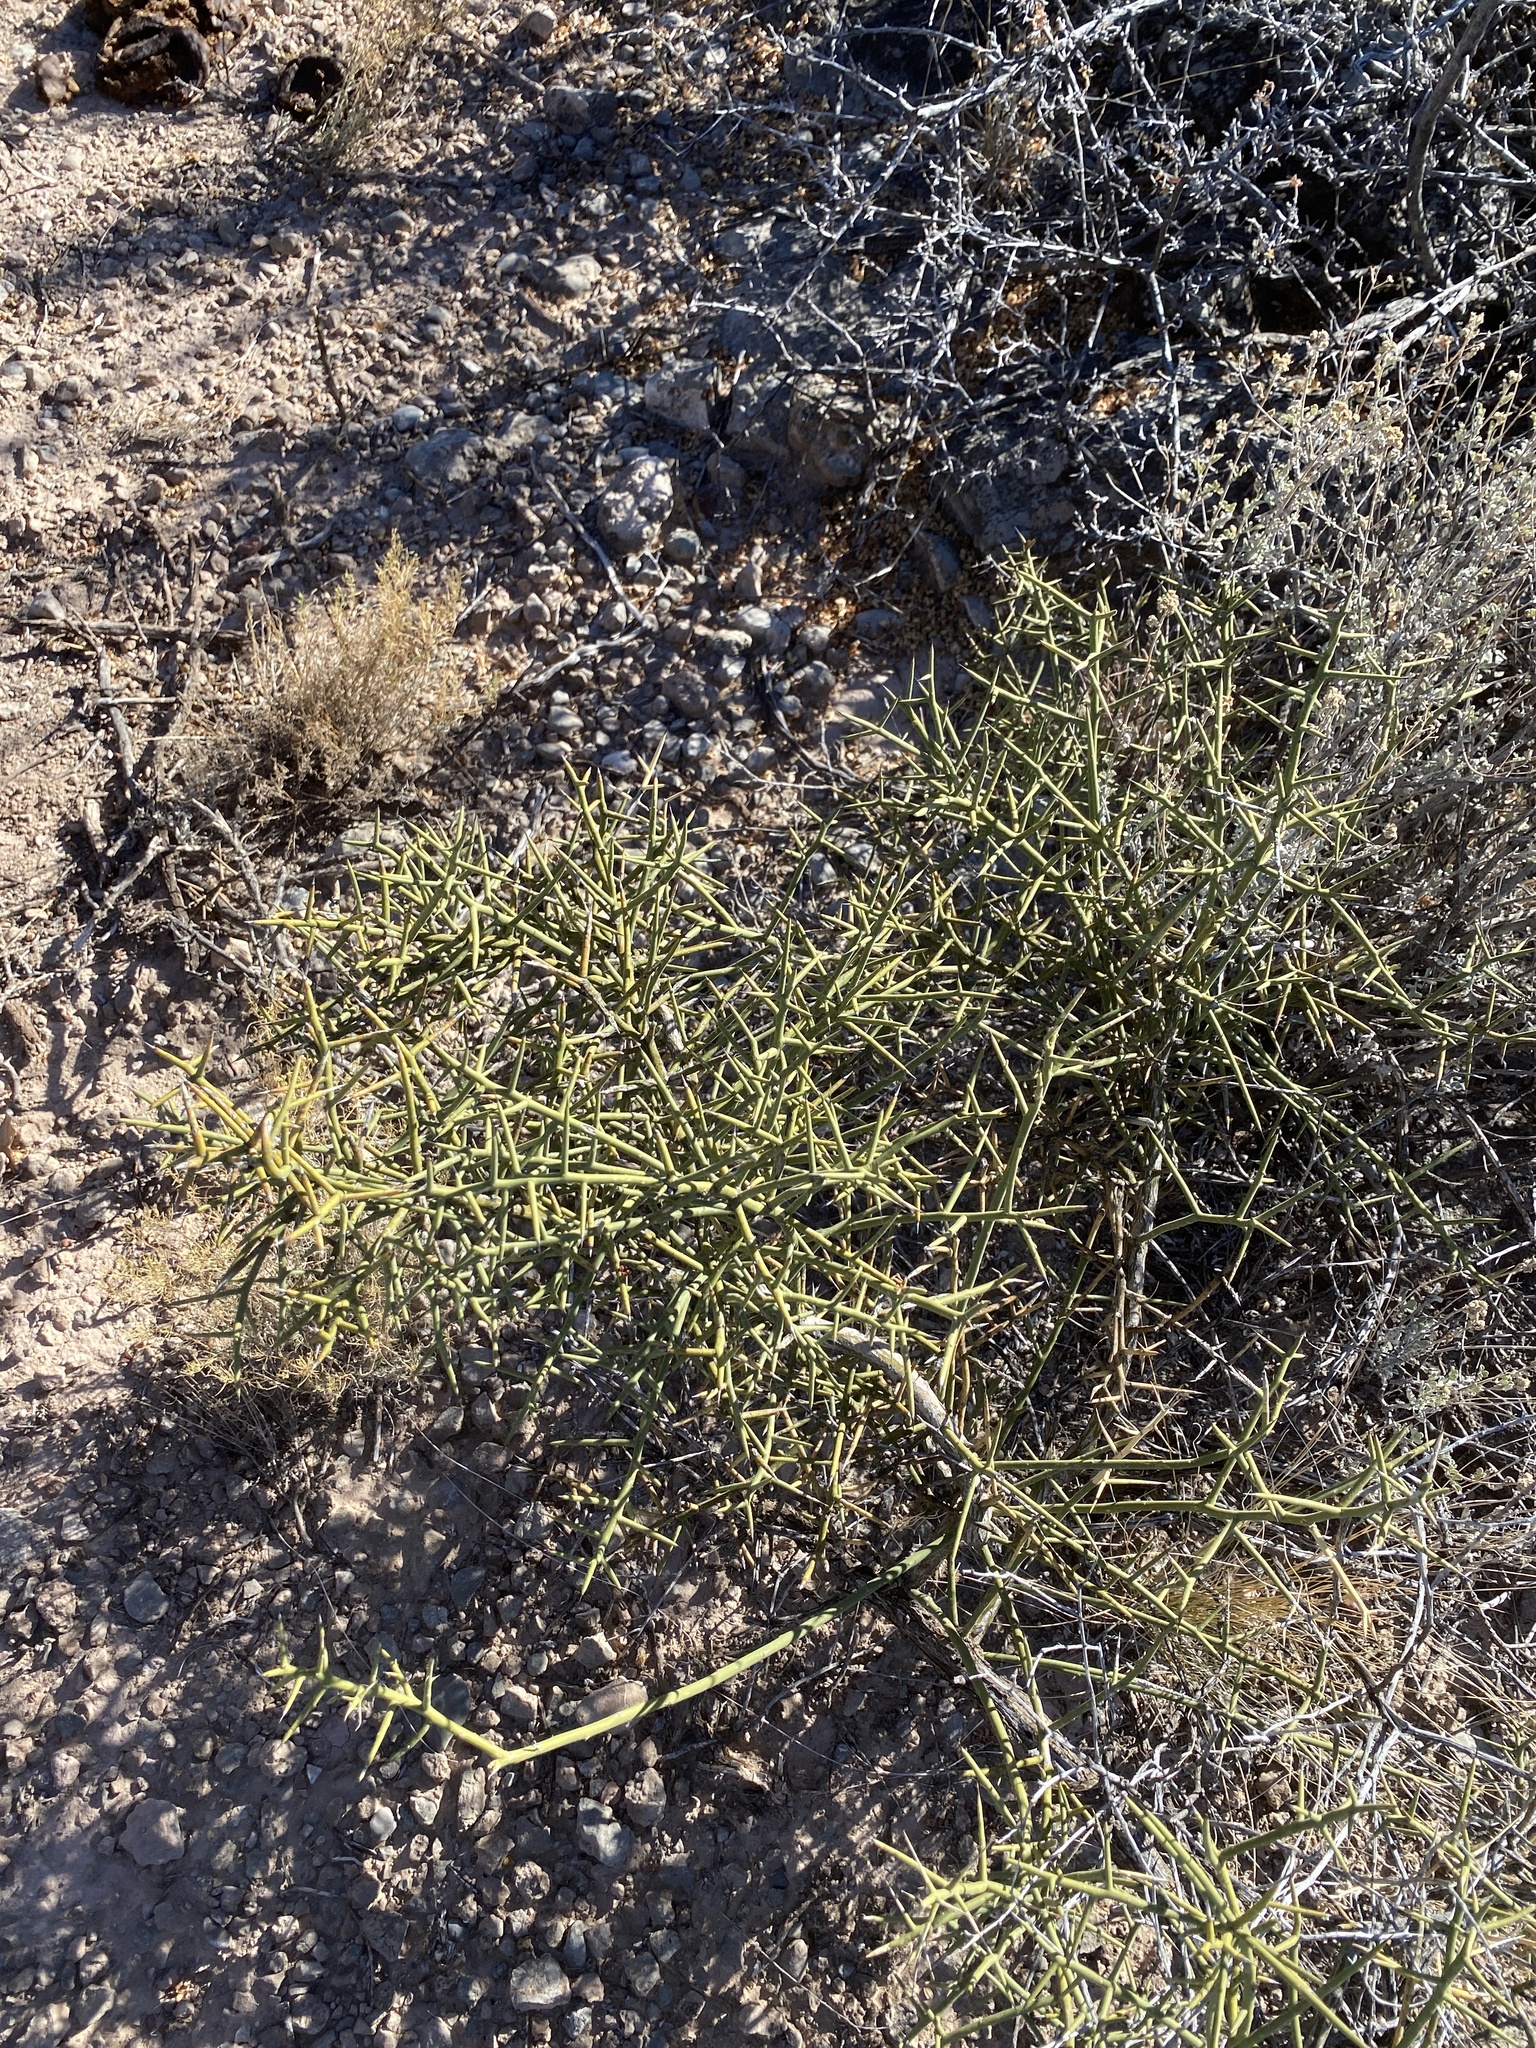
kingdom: Plantae
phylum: Tracheophyta
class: Magnoliopsida
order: Brassicales
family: Koeberliniaceae
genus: Koeberlinia
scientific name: Koeberlinia spinosa
